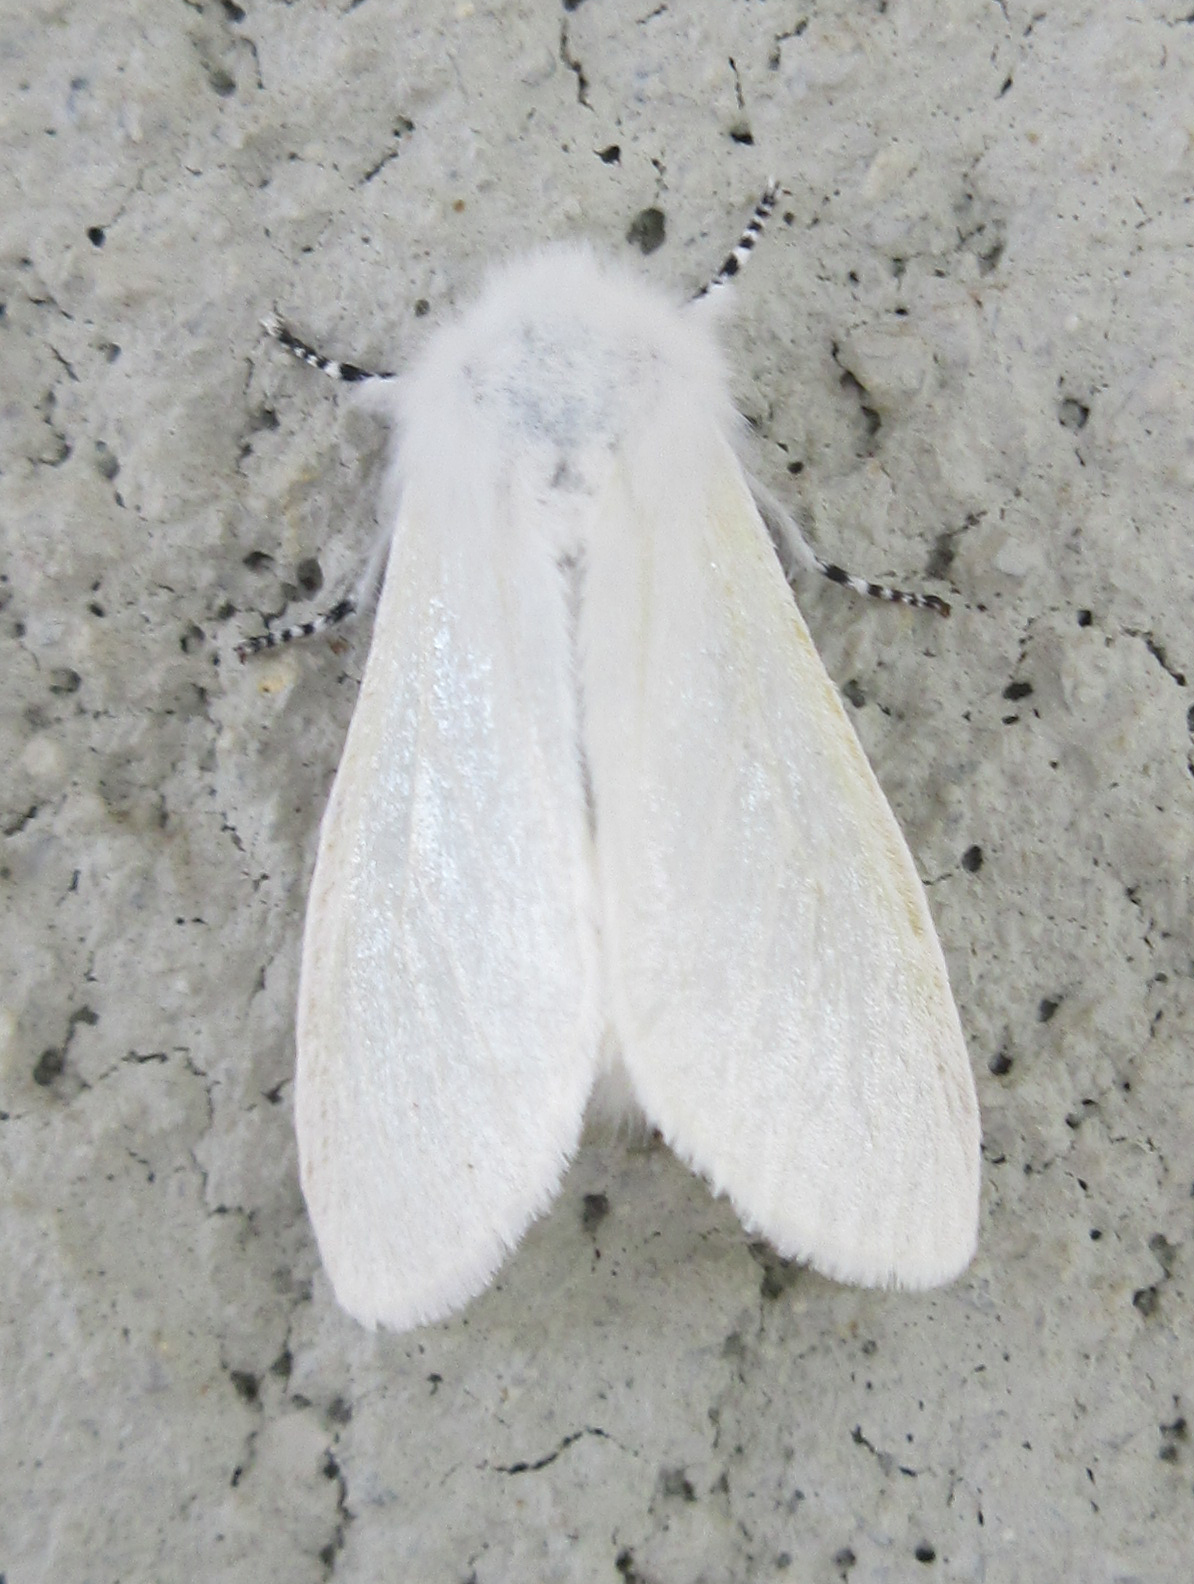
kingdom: Animalia
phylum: Arthropoda
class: Insecta
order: Lepidoptera
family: Erebidae
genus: Leucoma
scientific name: Leucoma salicis
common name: White satin moth
